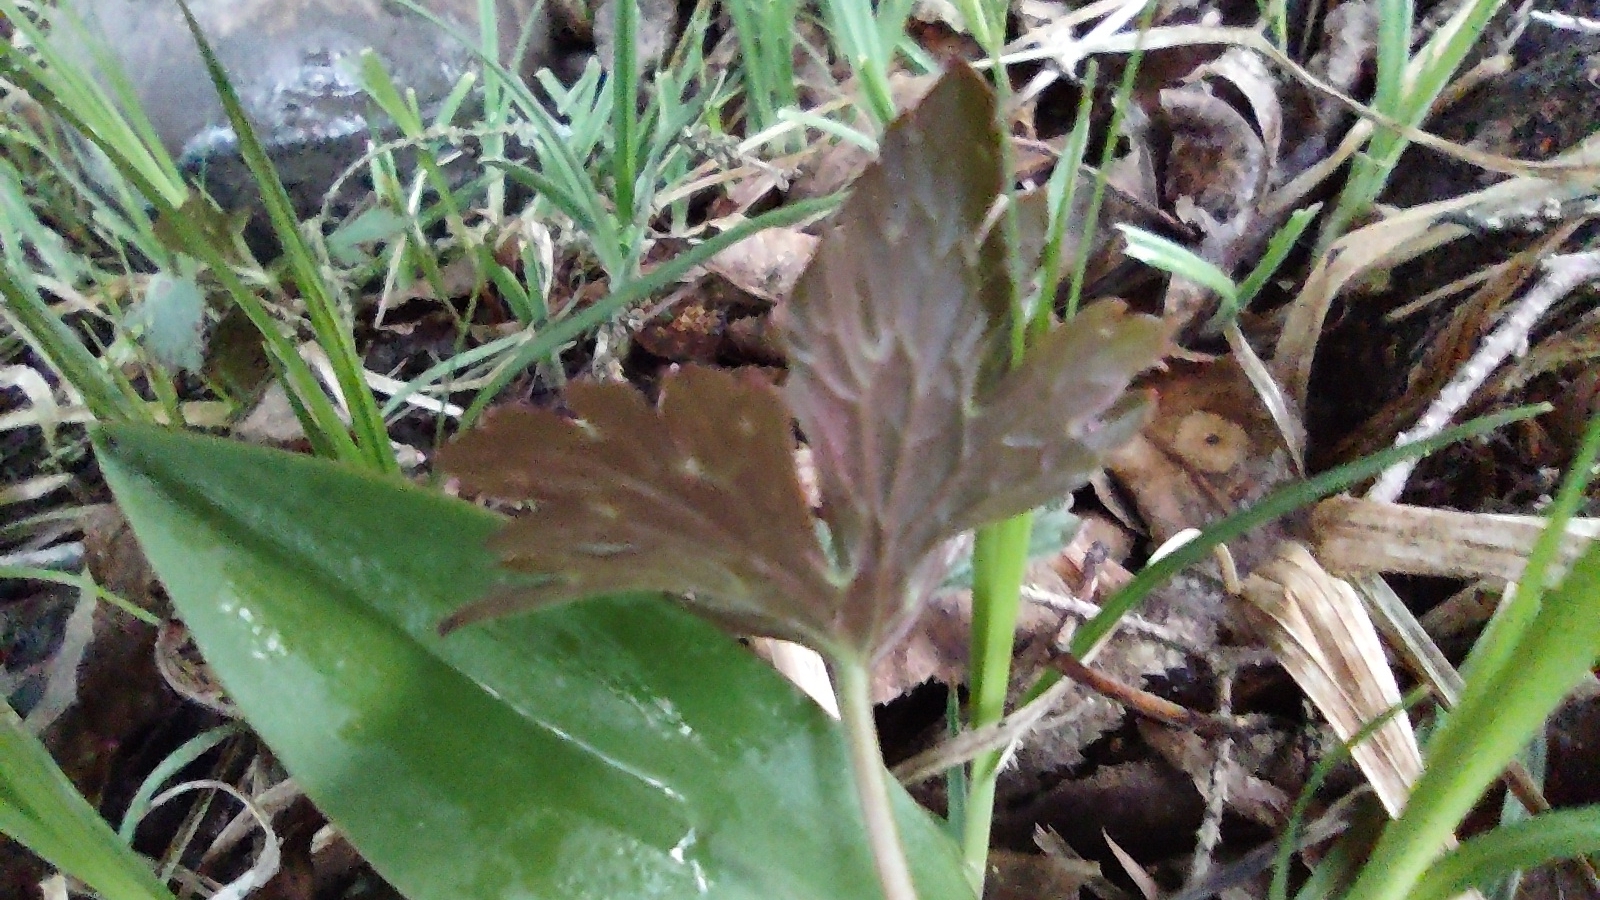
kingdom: Plantae
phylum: Tracheophyta
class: Magnoliopsida
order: Geraniales
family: Geraniaceae
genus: Geranium
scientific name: Geranium maculatum
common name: Spotted geranium
